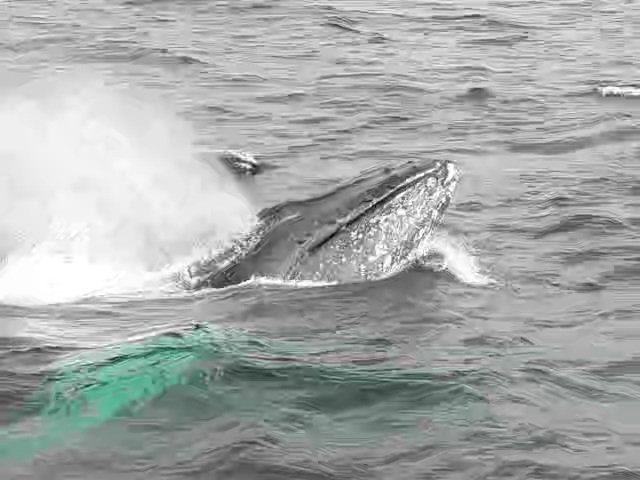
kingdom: Animalia
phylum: Chordata
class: Mammalia
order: Cetacea
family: Balaenopteridae
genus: Megaptera
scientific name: Megaptera novaeangliae
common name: Humpback whale
